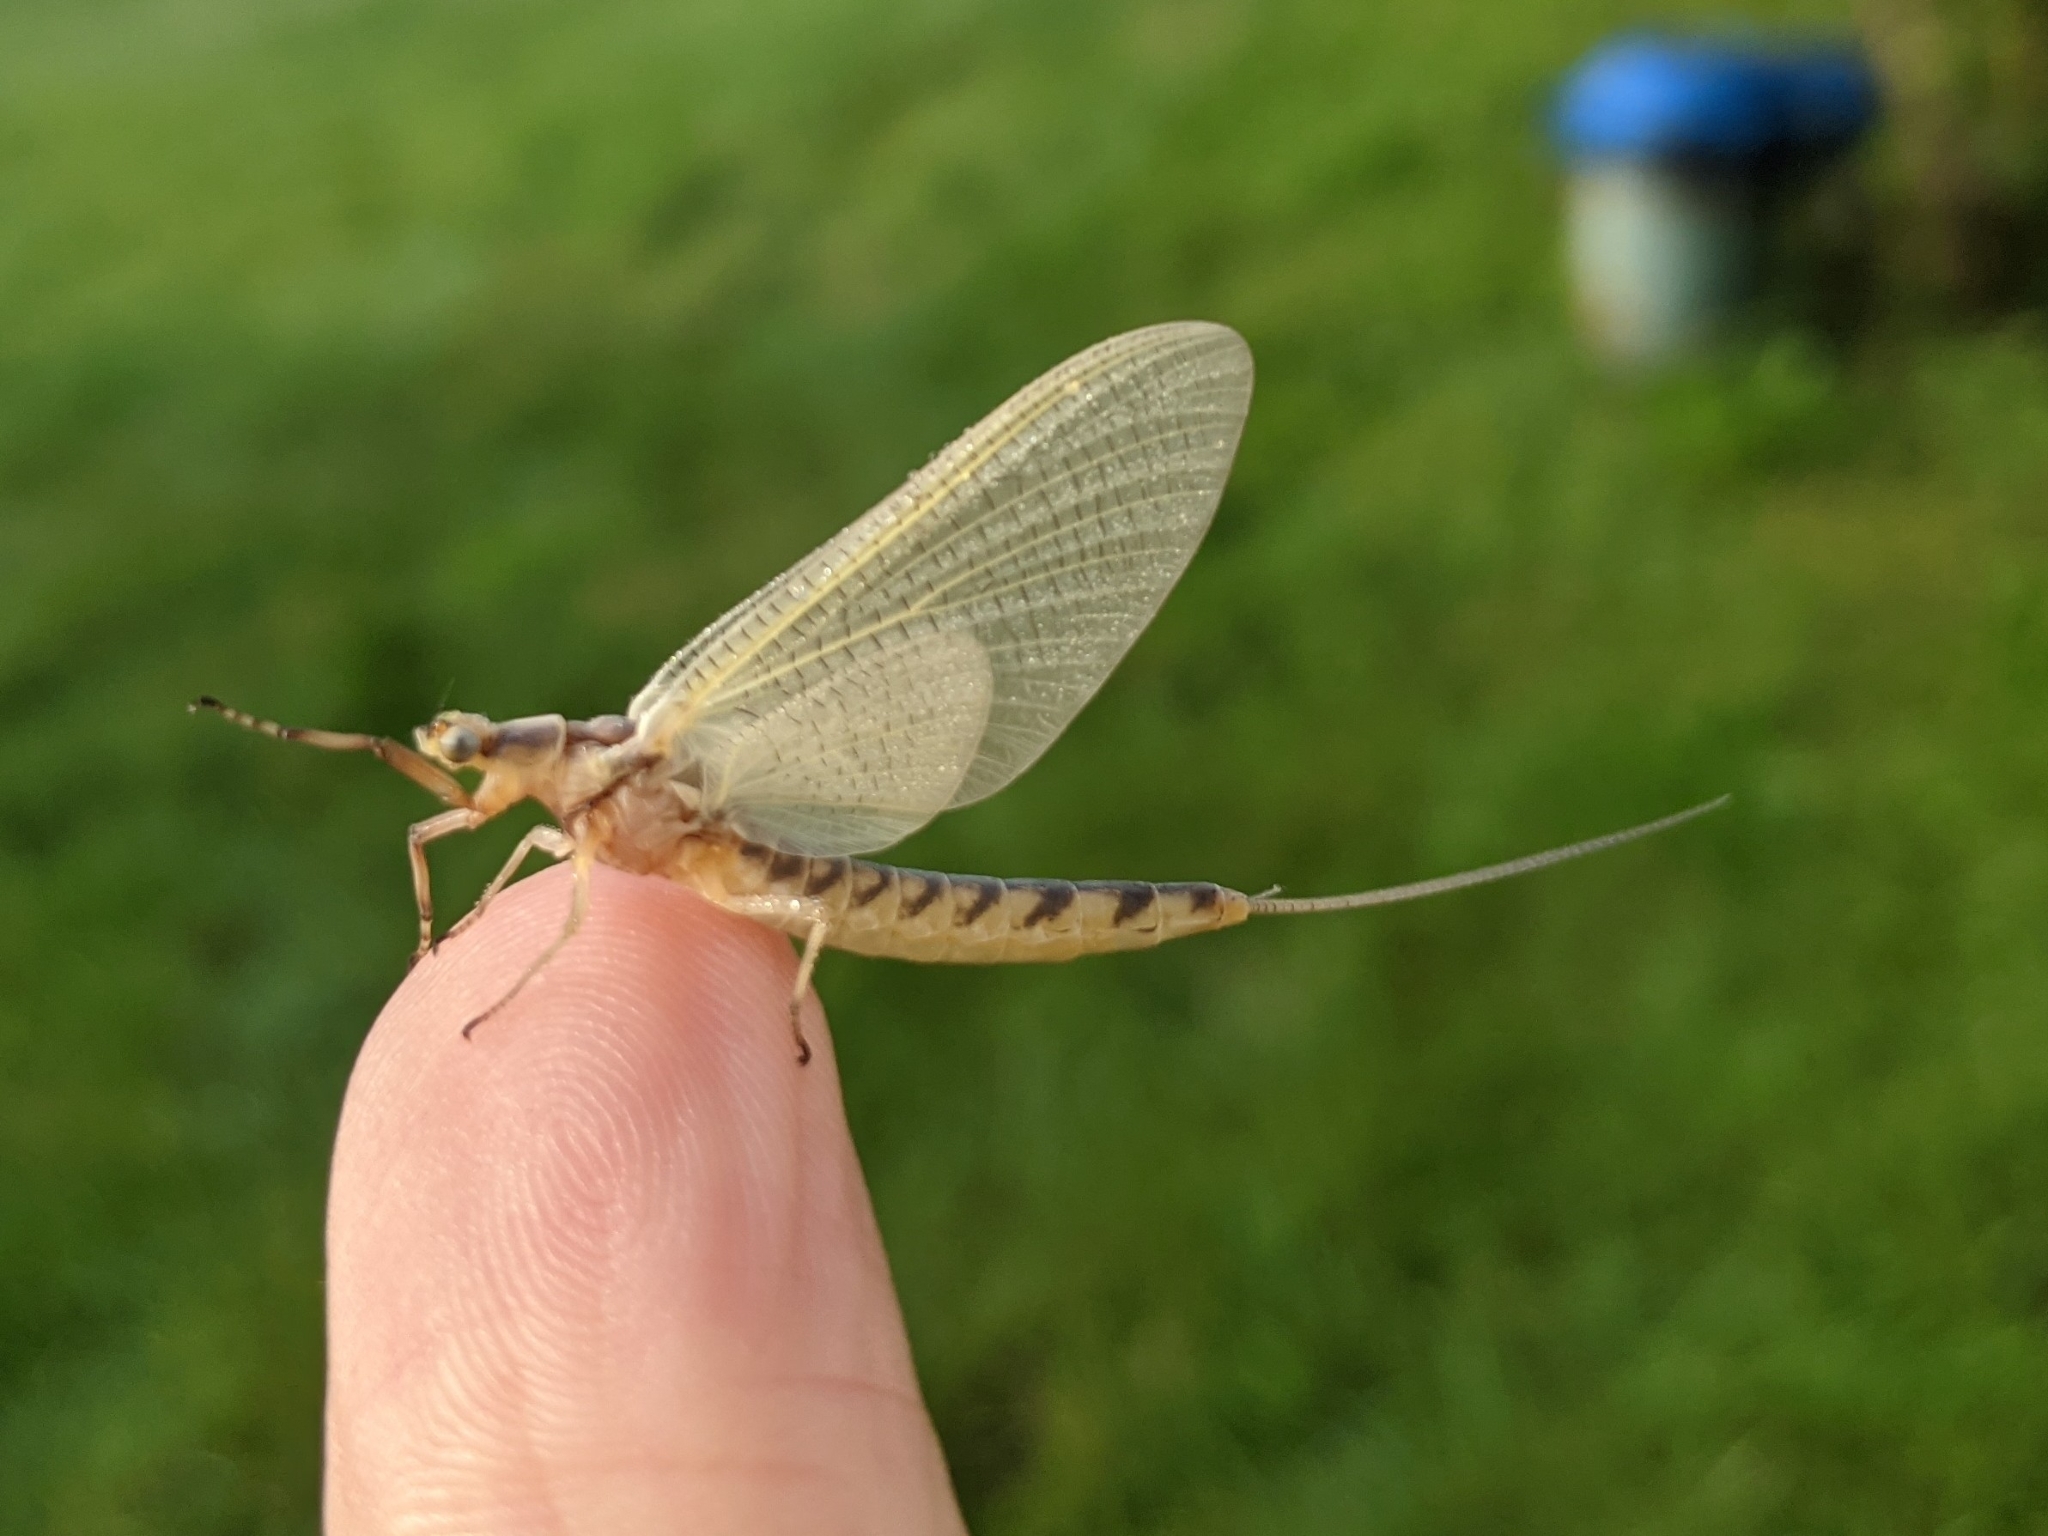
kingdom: Animalia
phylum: Arthropoda
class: Insecta
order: Ephemeroptera
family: Ephemeridae
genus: Hexagenia
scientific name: Hexagenia limbata
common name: Giant mayfly
